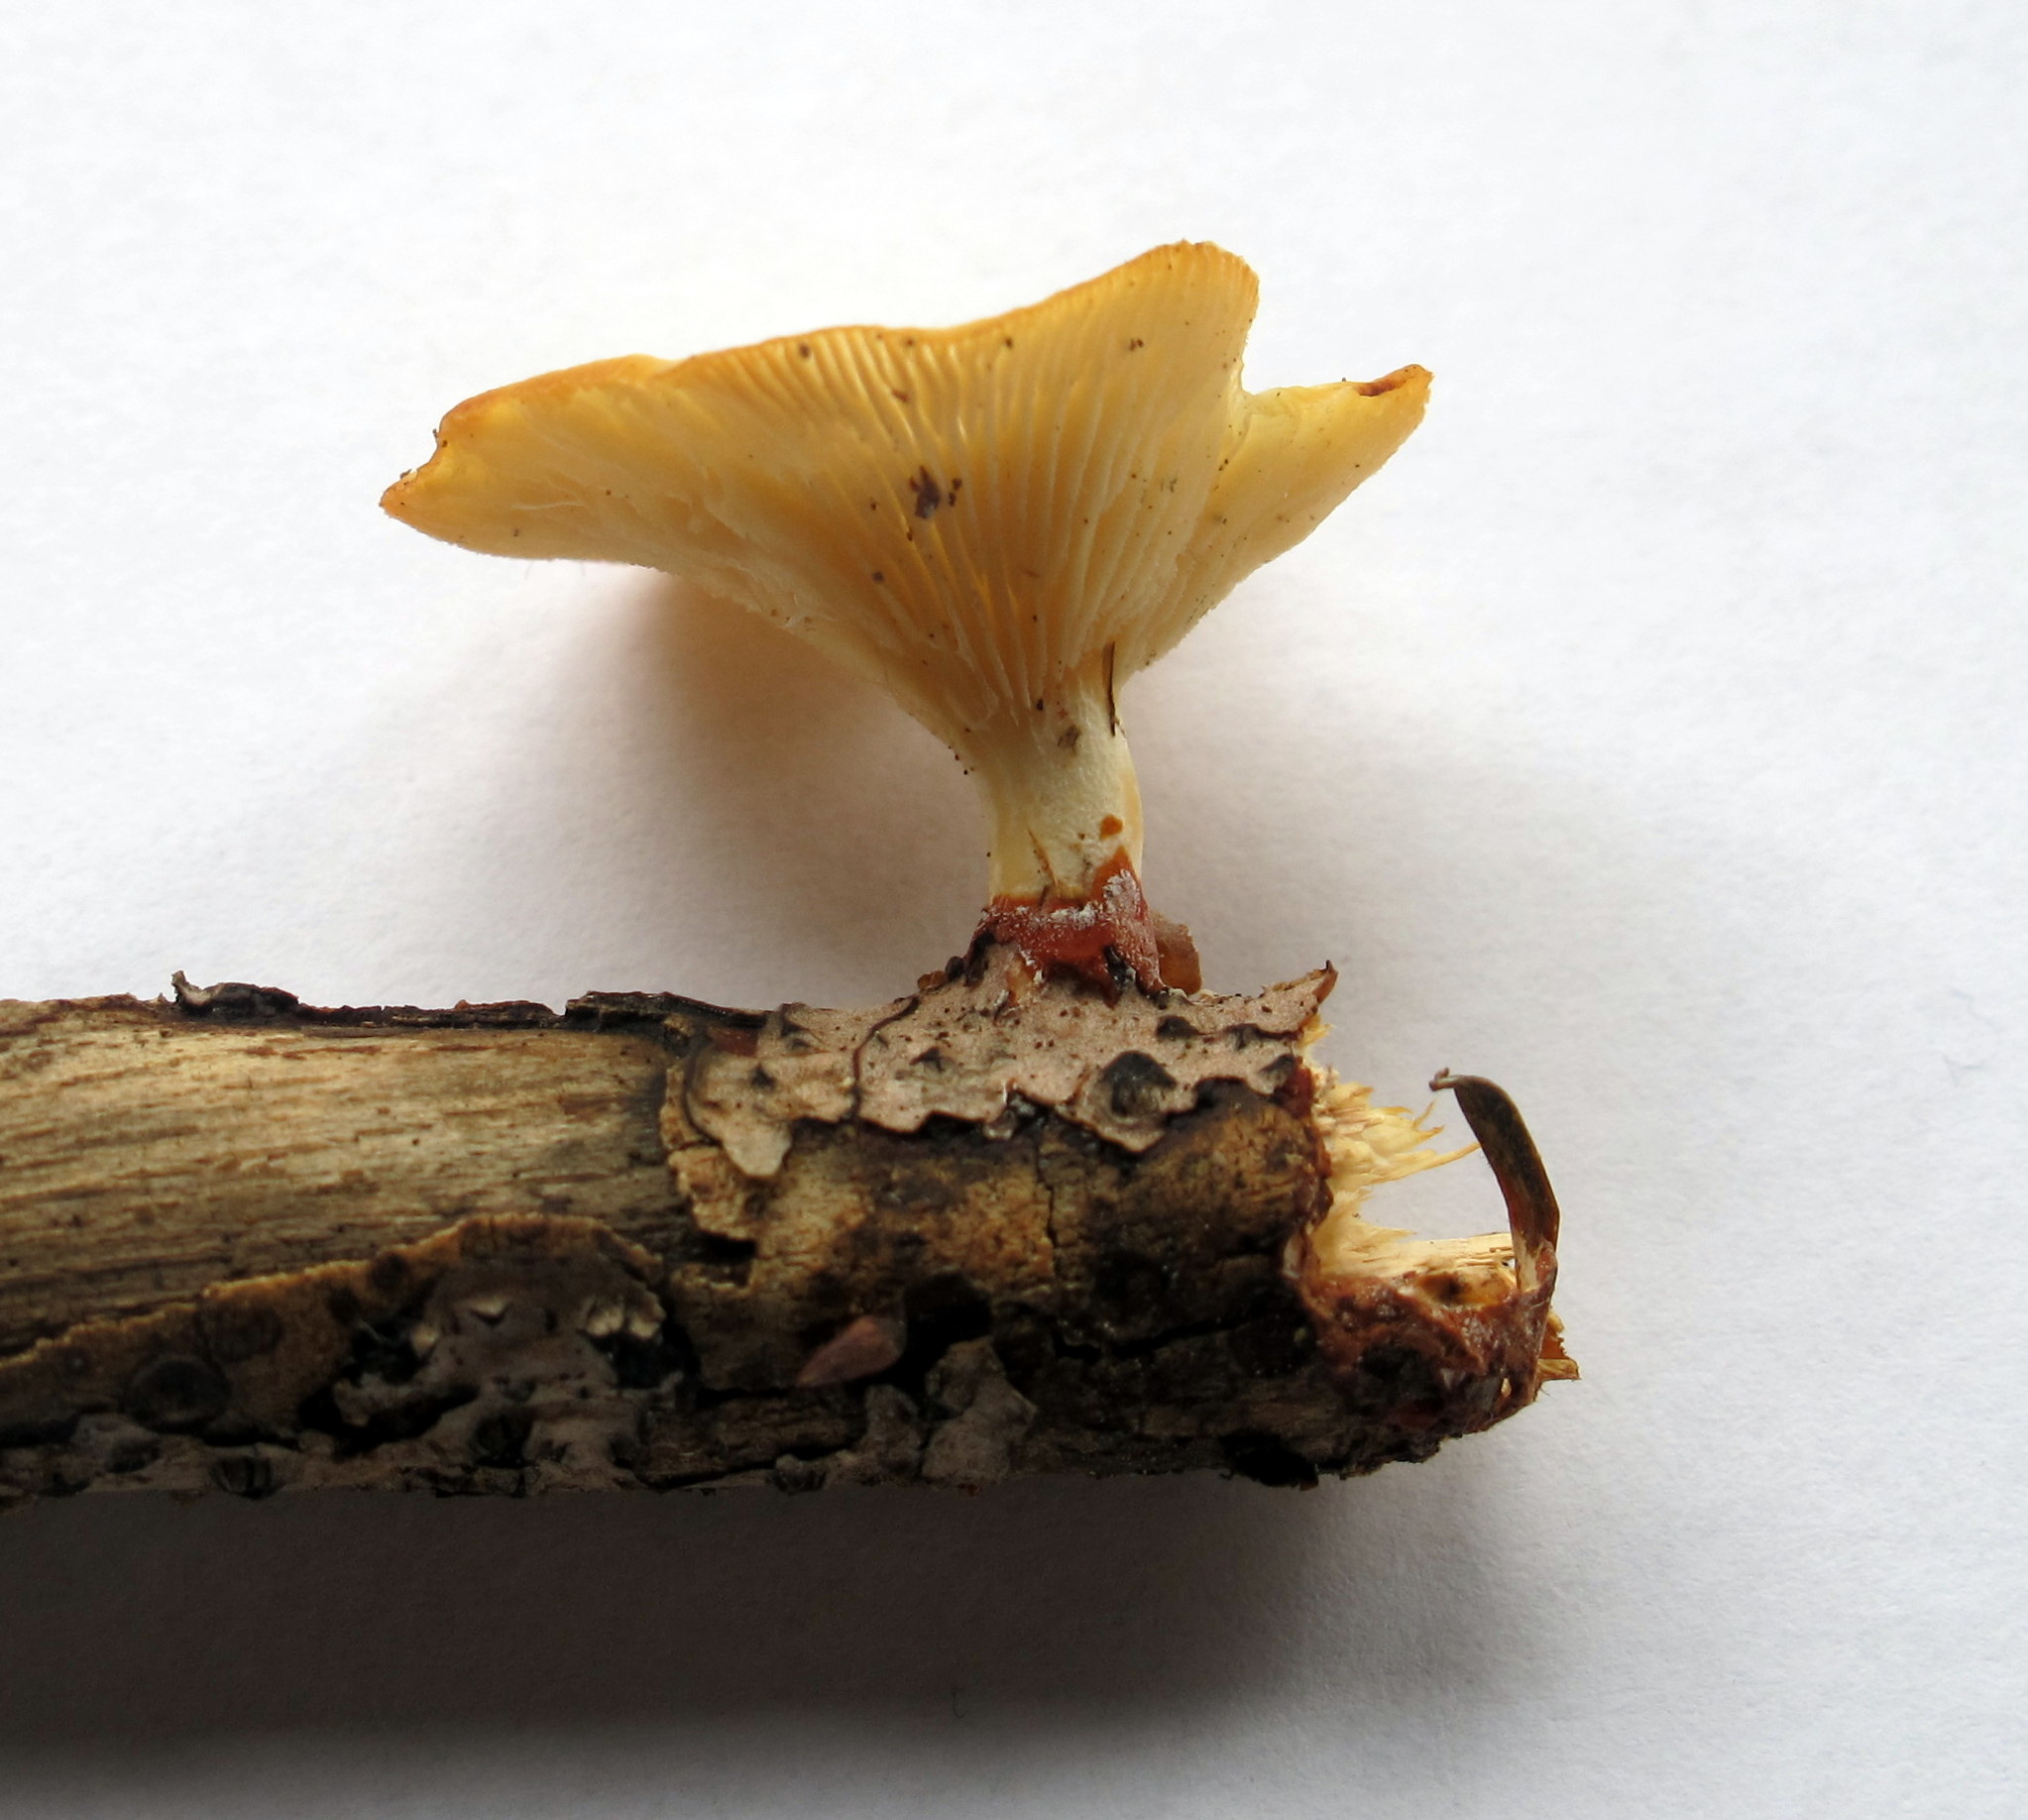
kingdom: Fungi
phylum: Basidiomycota
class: Agaricomycetes
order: Polyporales
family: Polyporaceae
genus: Neofavolus
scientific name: Neofavolus suavissimus
